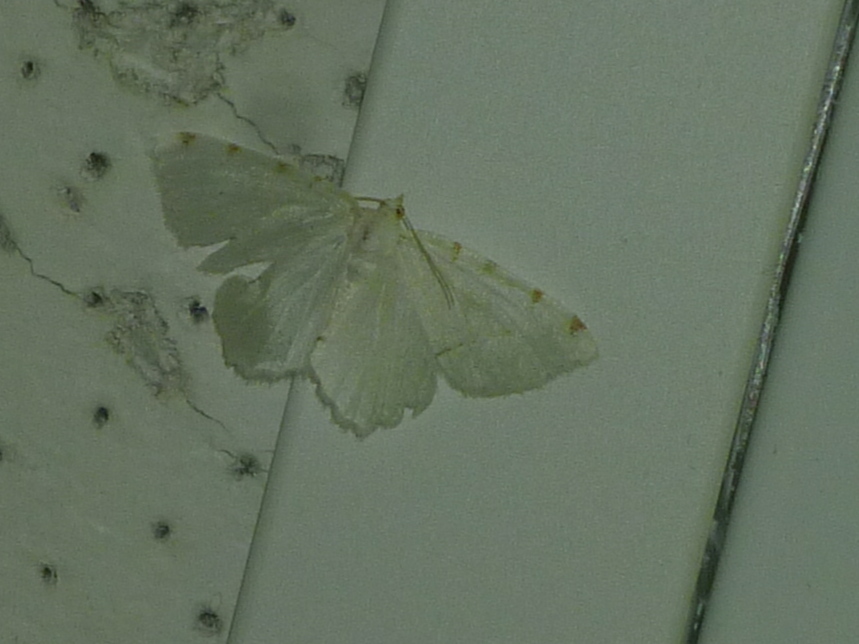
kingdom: Animalia
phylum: Arthropoda
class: Insecta
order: Lepidoptera
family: Geometridae
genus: Macaria
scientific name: Macaria pustularia
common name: Lesser maple spanworm moth
